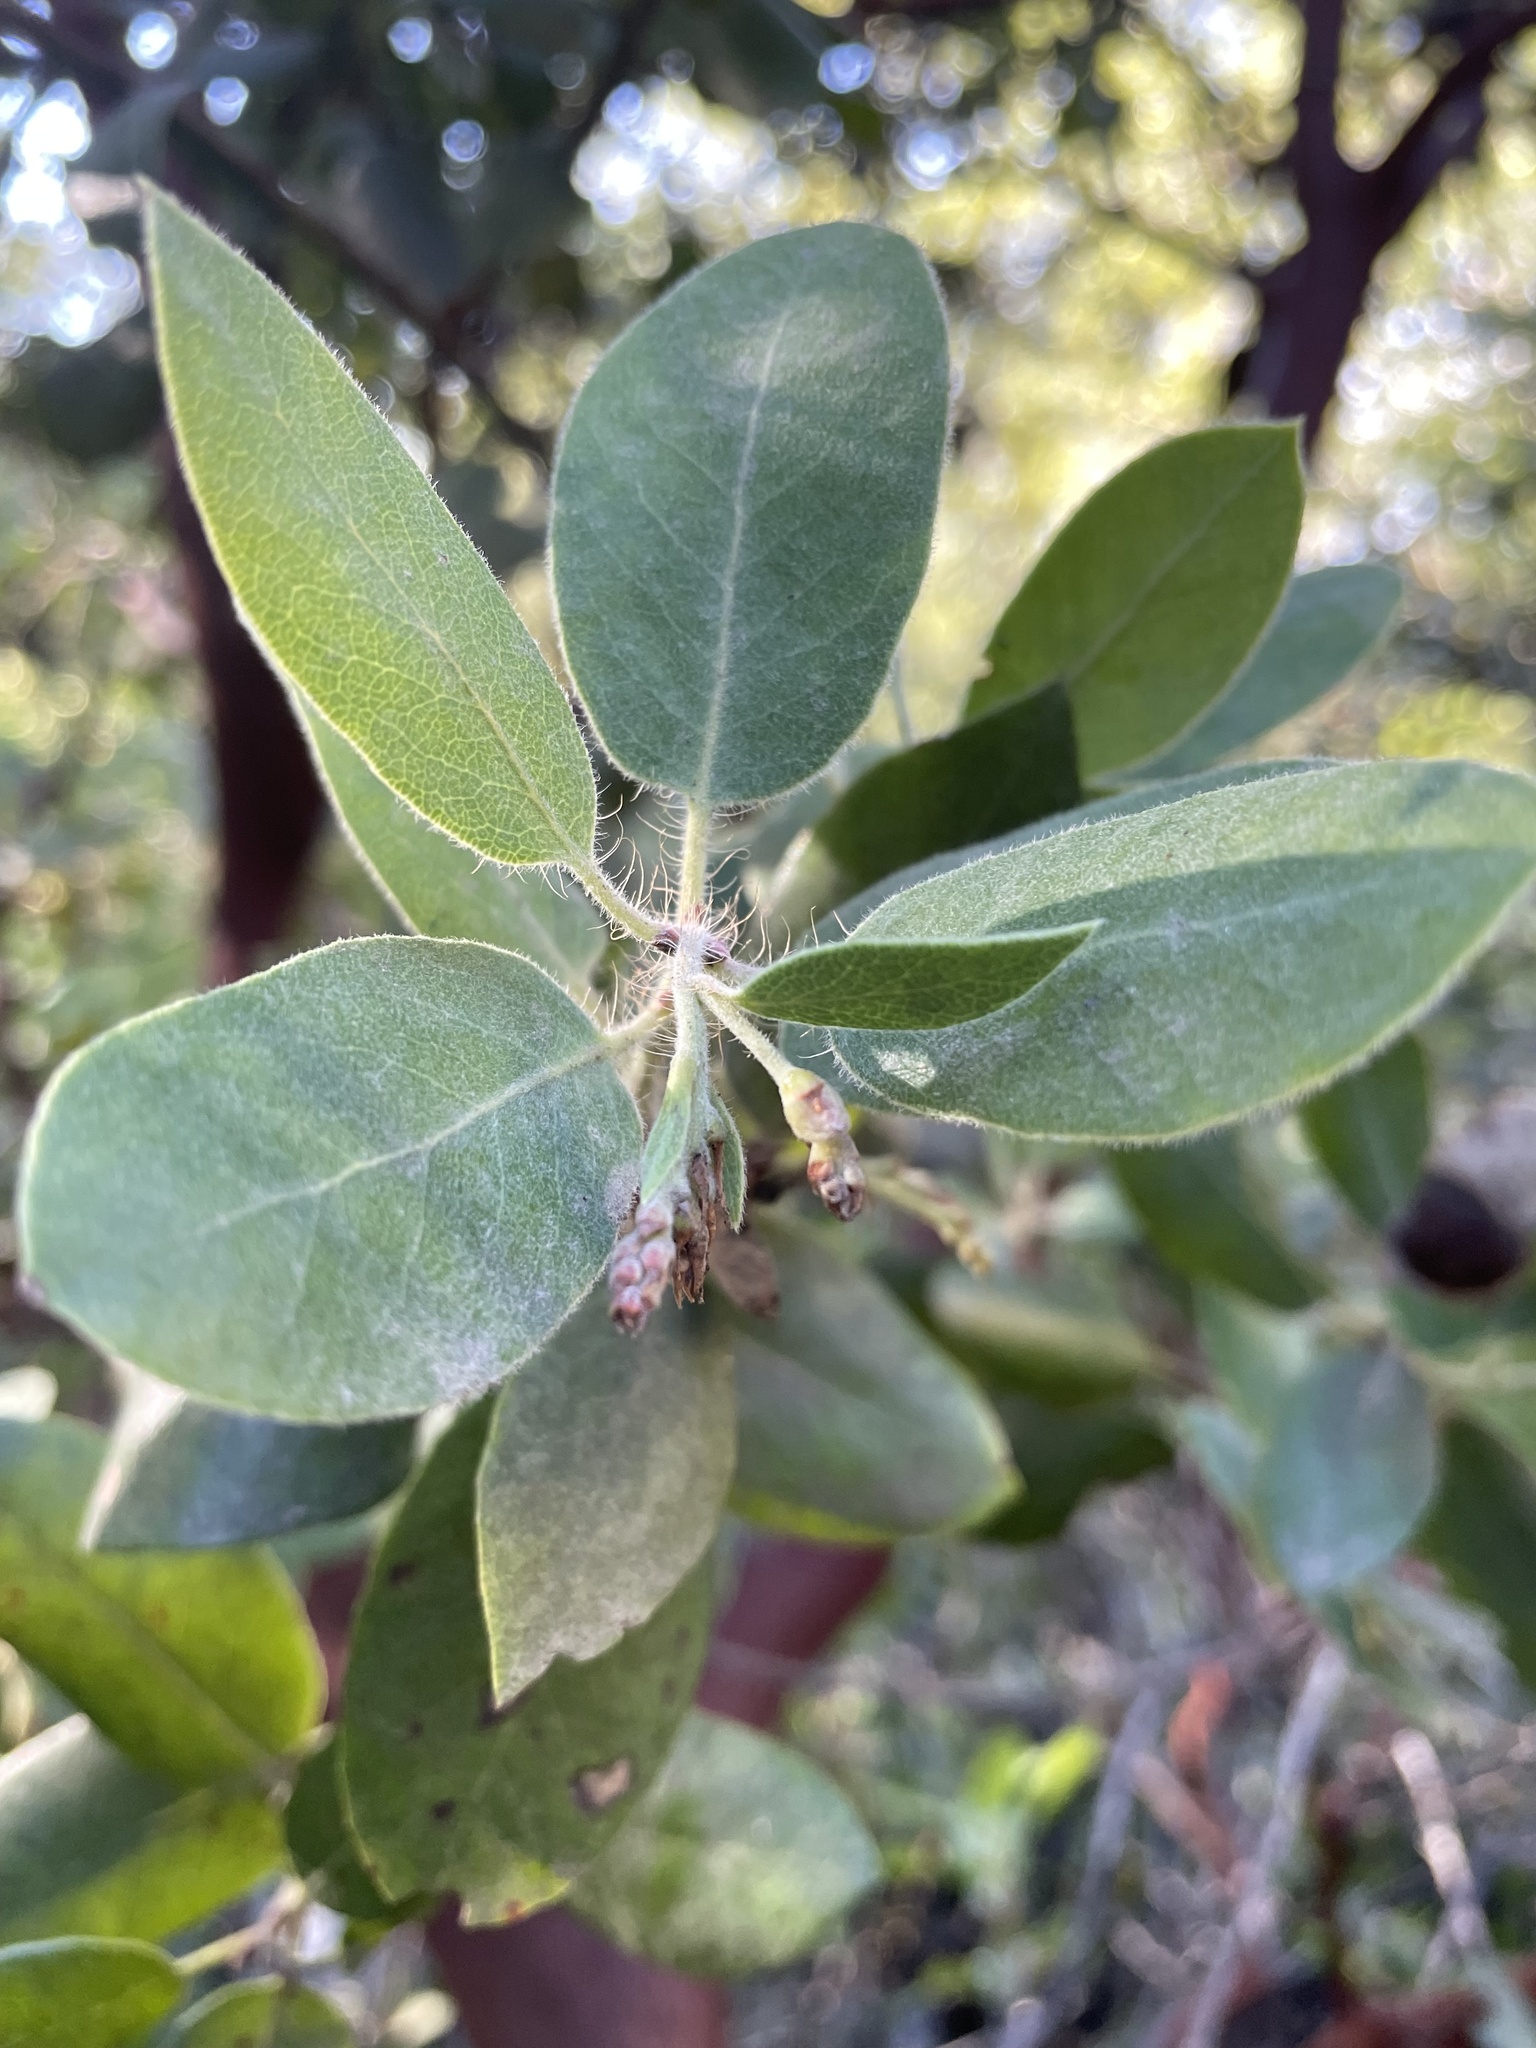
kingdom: Plantae
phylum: Tracheophyta
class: Magnoliopsida
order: Ericales
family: Ericaceae
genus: Arctostaphylos
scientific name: Arctostaphylos crustacea
